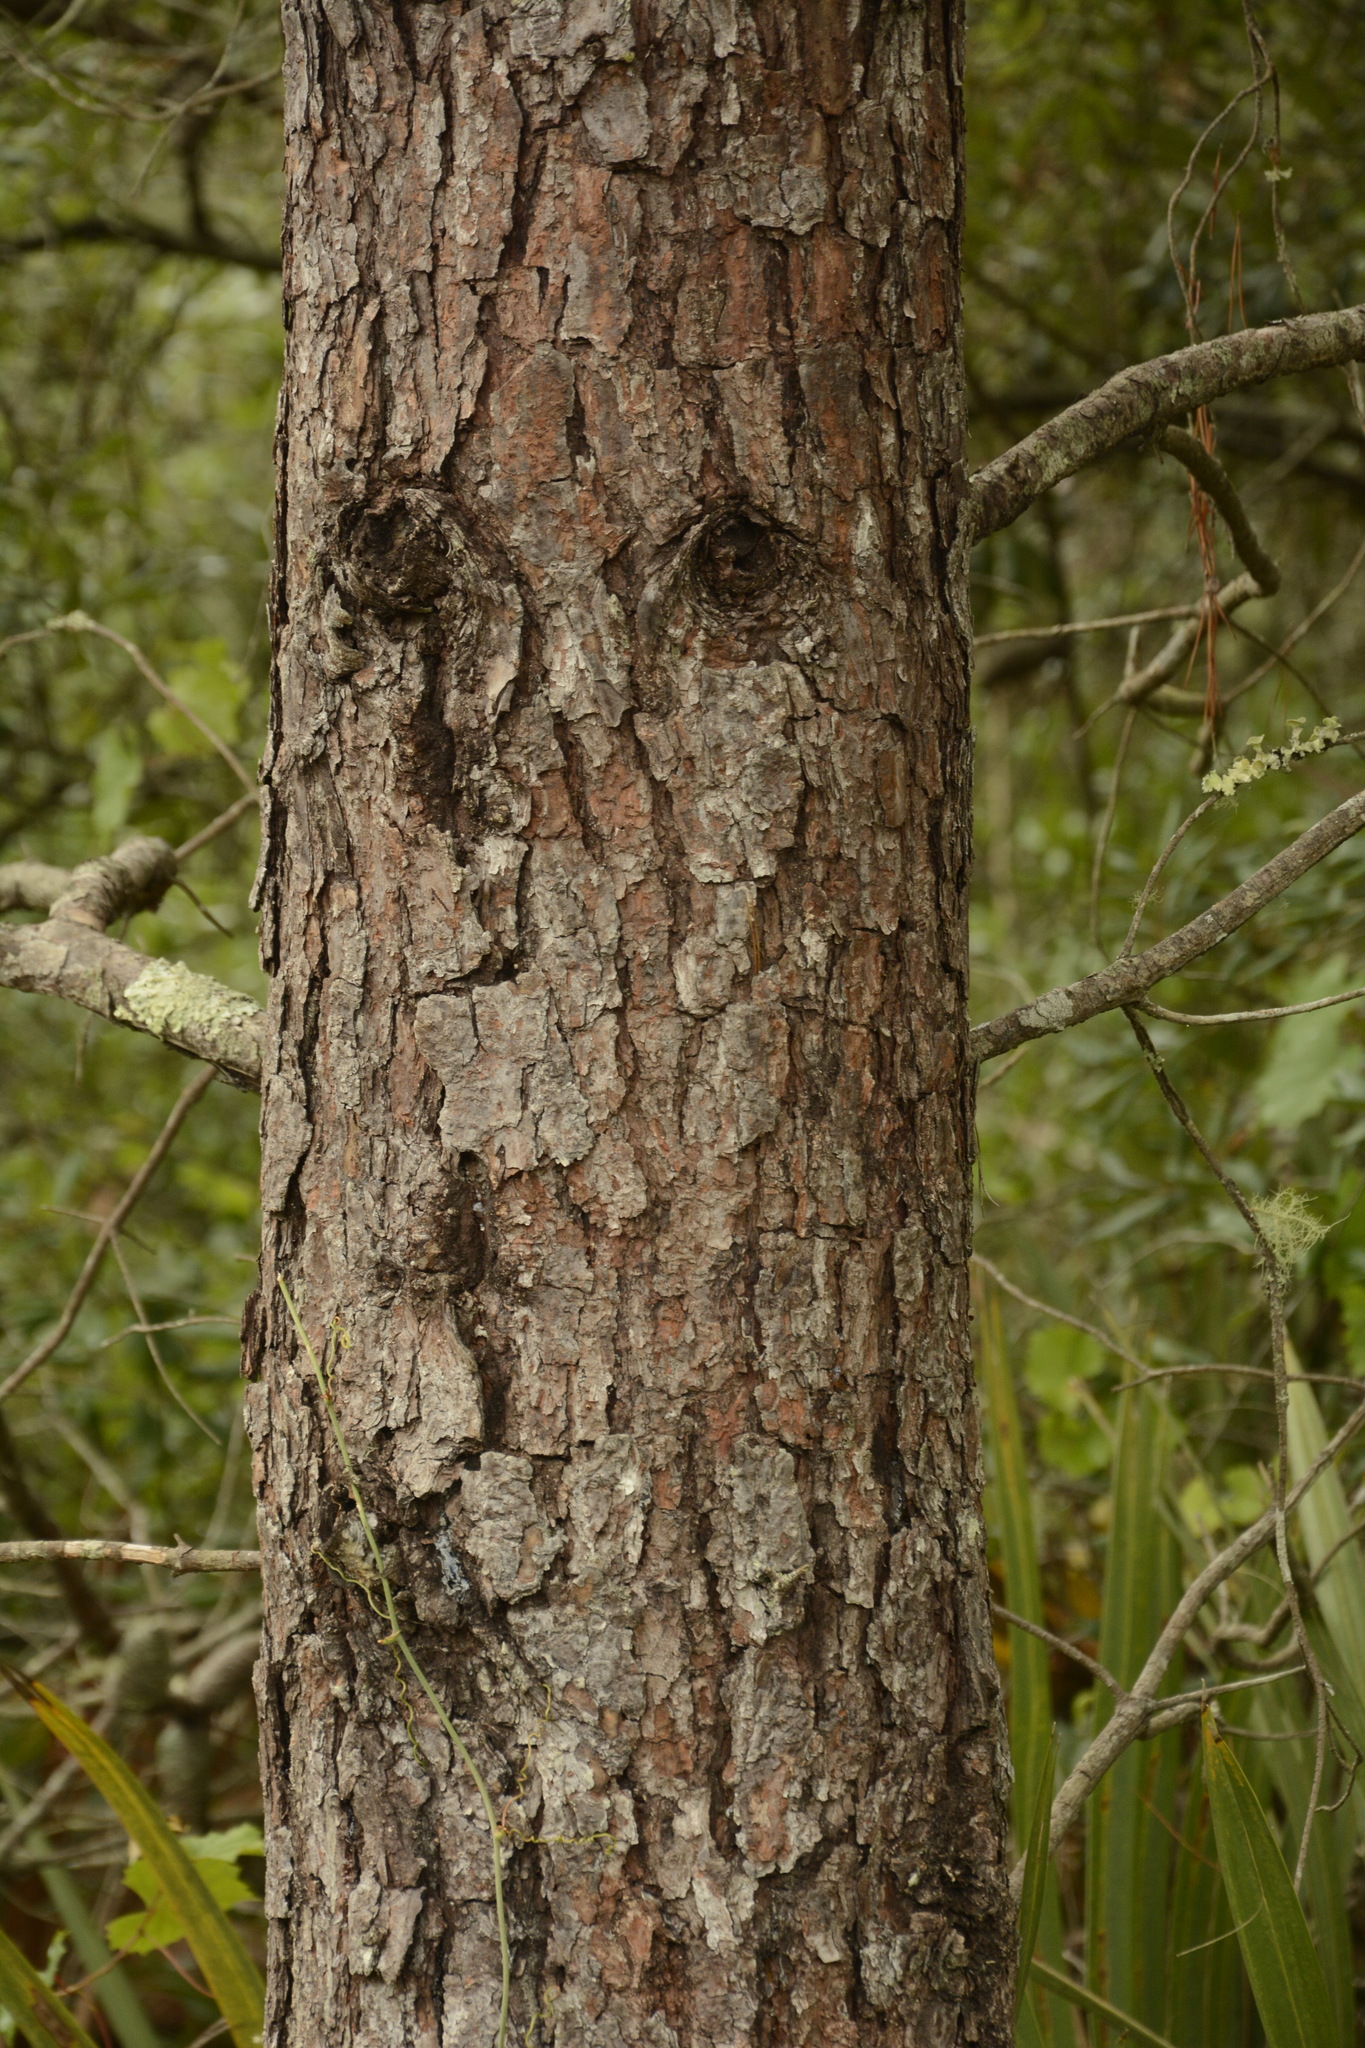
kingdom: Plantae
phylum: Tracheophyta
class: Pinopsida
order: Pinales
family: Pinaceae
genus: Pinus
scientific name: Pinus clausa
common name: Sand pine
